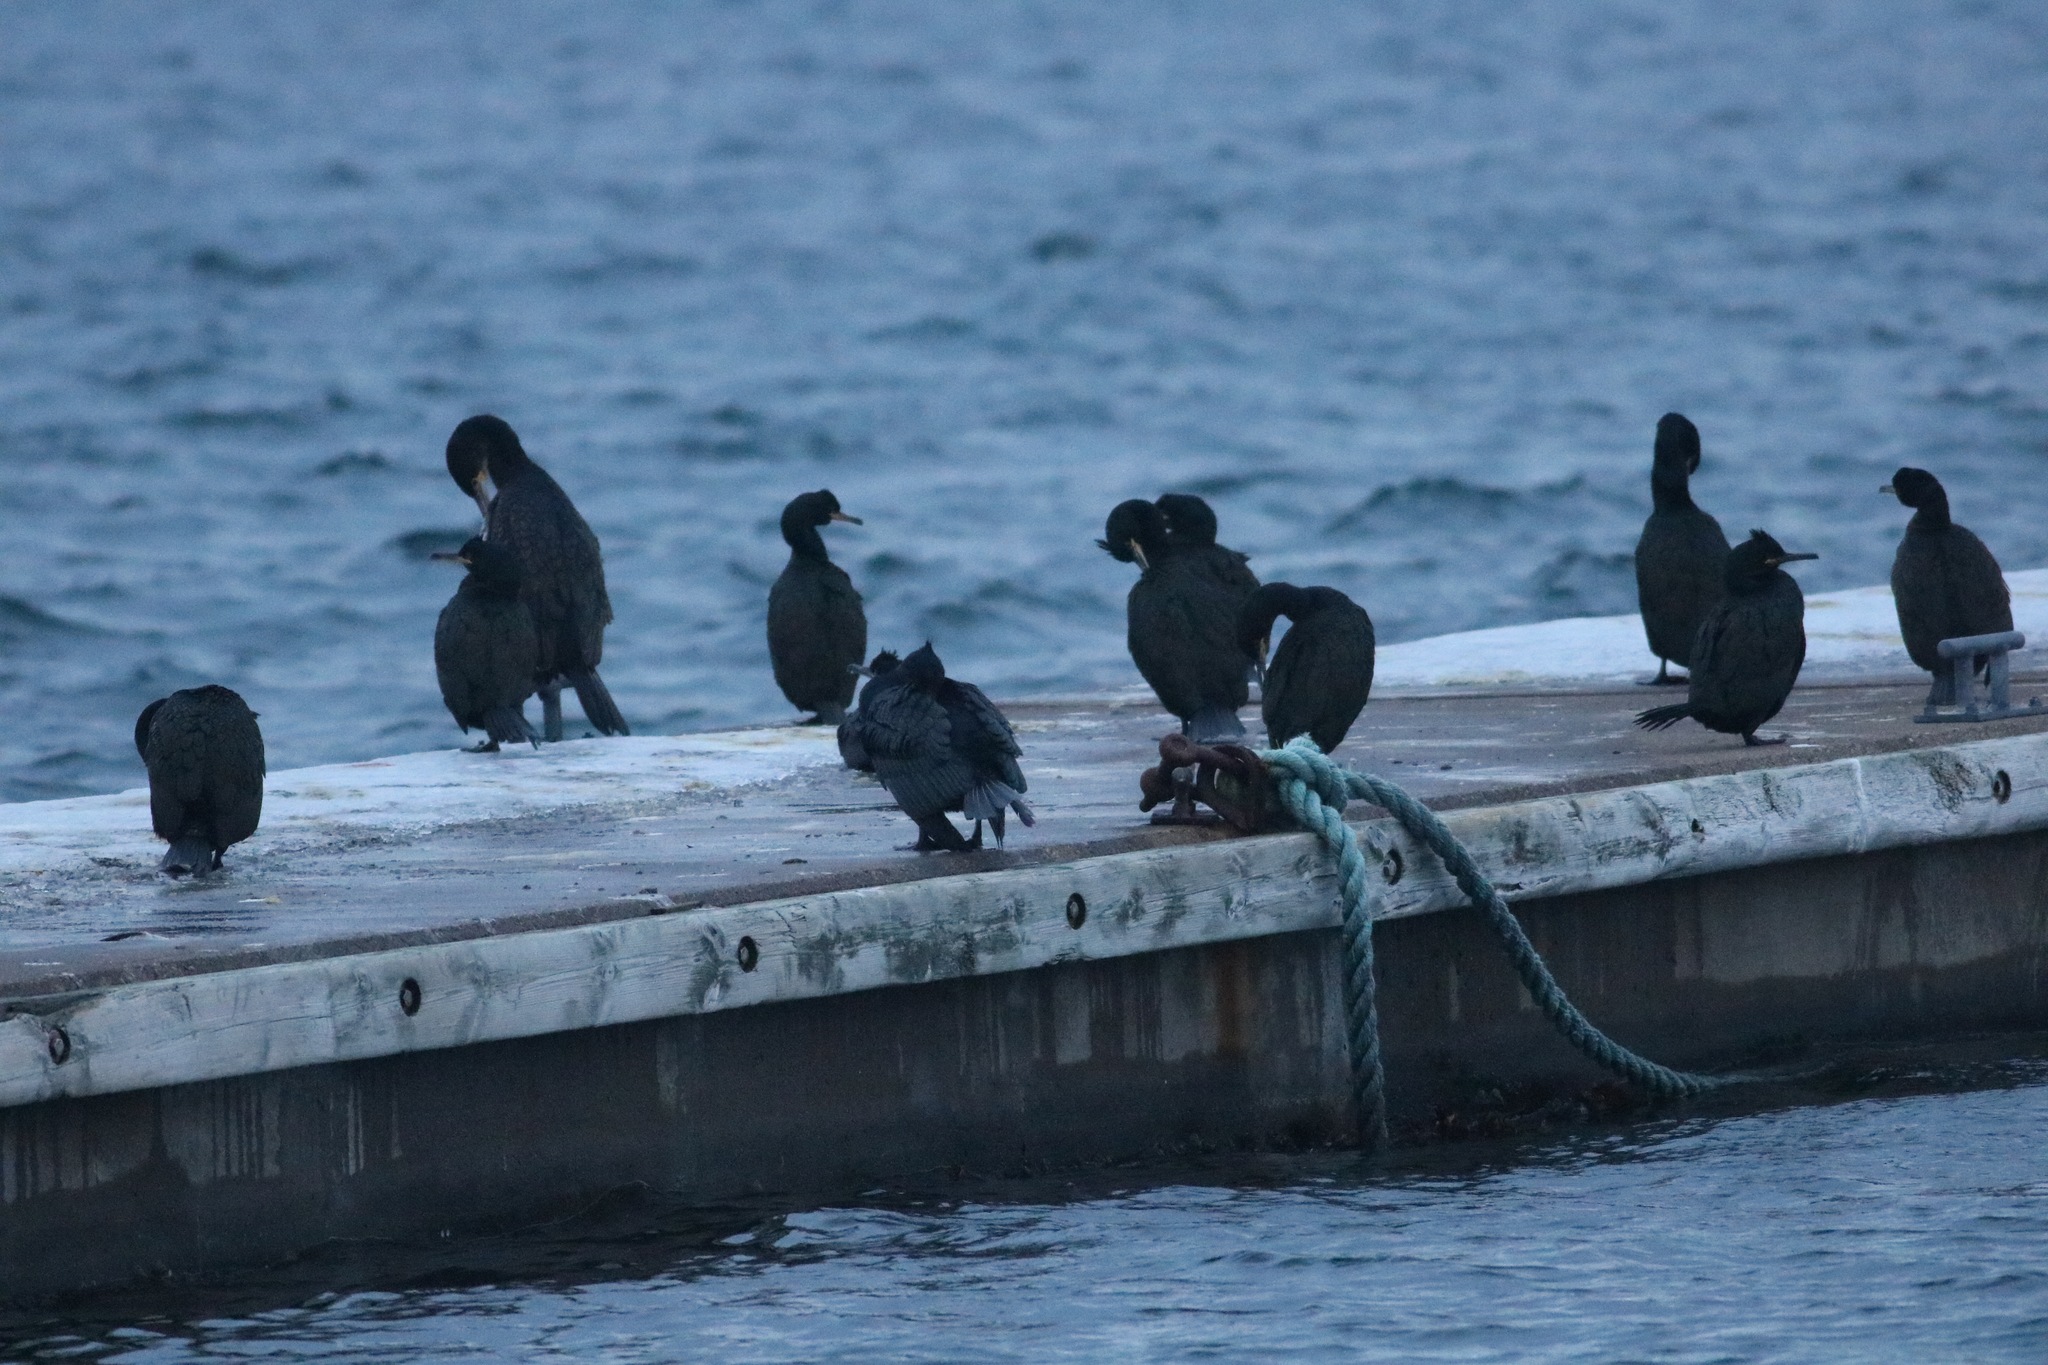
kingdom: Animalia
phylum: Chordata
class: Aves
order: Suliformes
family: Phalacrocoracidae
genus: Phalacrocorax
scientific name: Phalacrocorax aristotelis
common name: European shag
